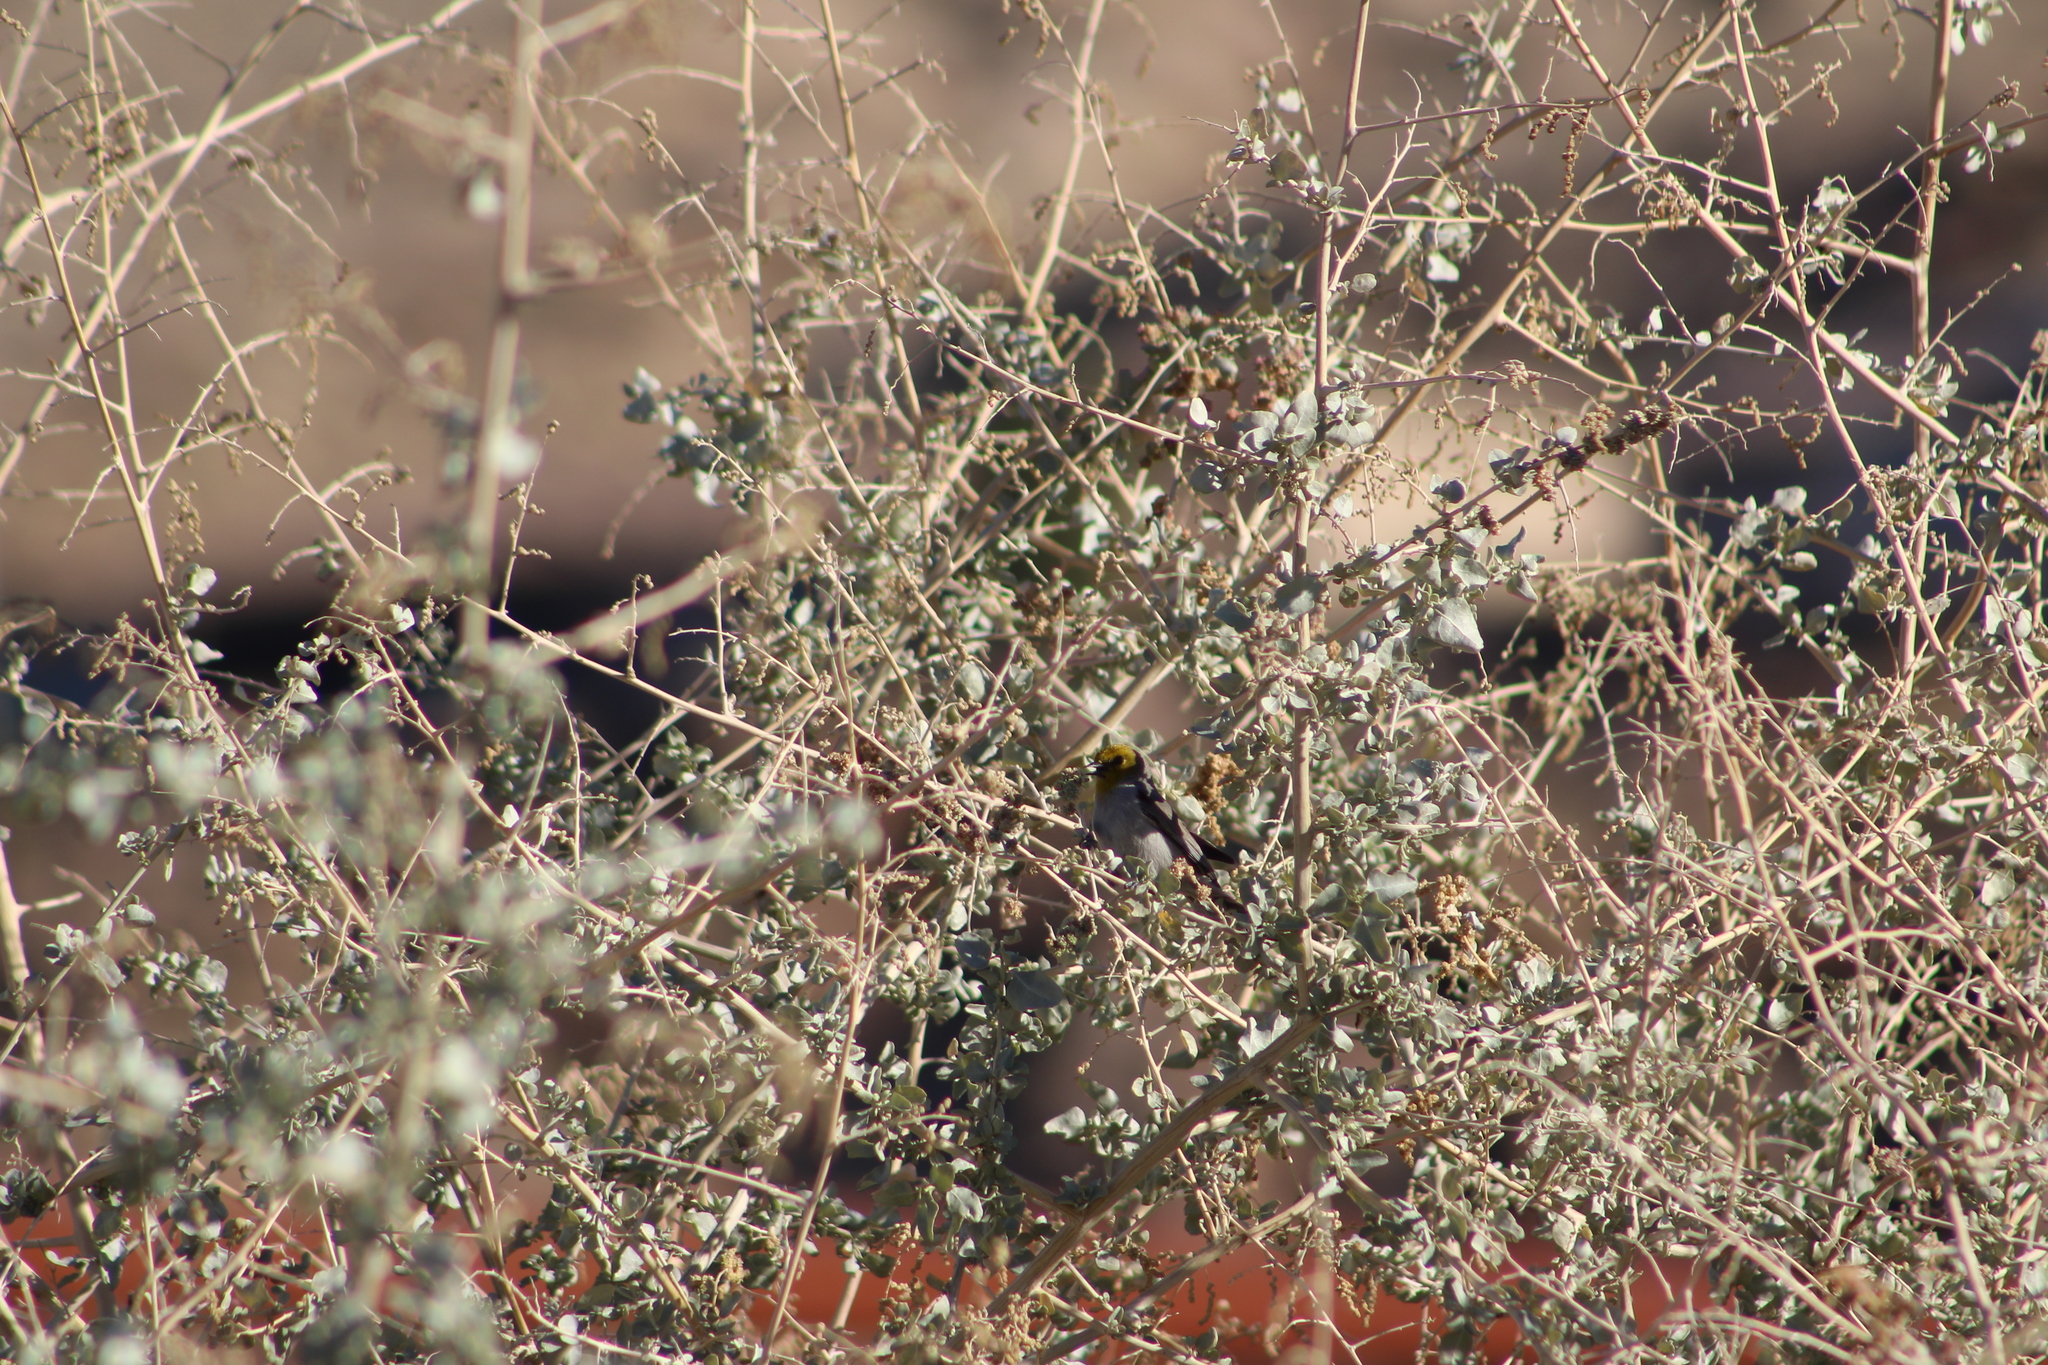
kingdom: Animalia
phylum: Chordata
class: Aves
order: Passeriformes
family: Remizidae
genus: Auriparus
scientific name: Auriparus flaviceps
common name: Verdin
